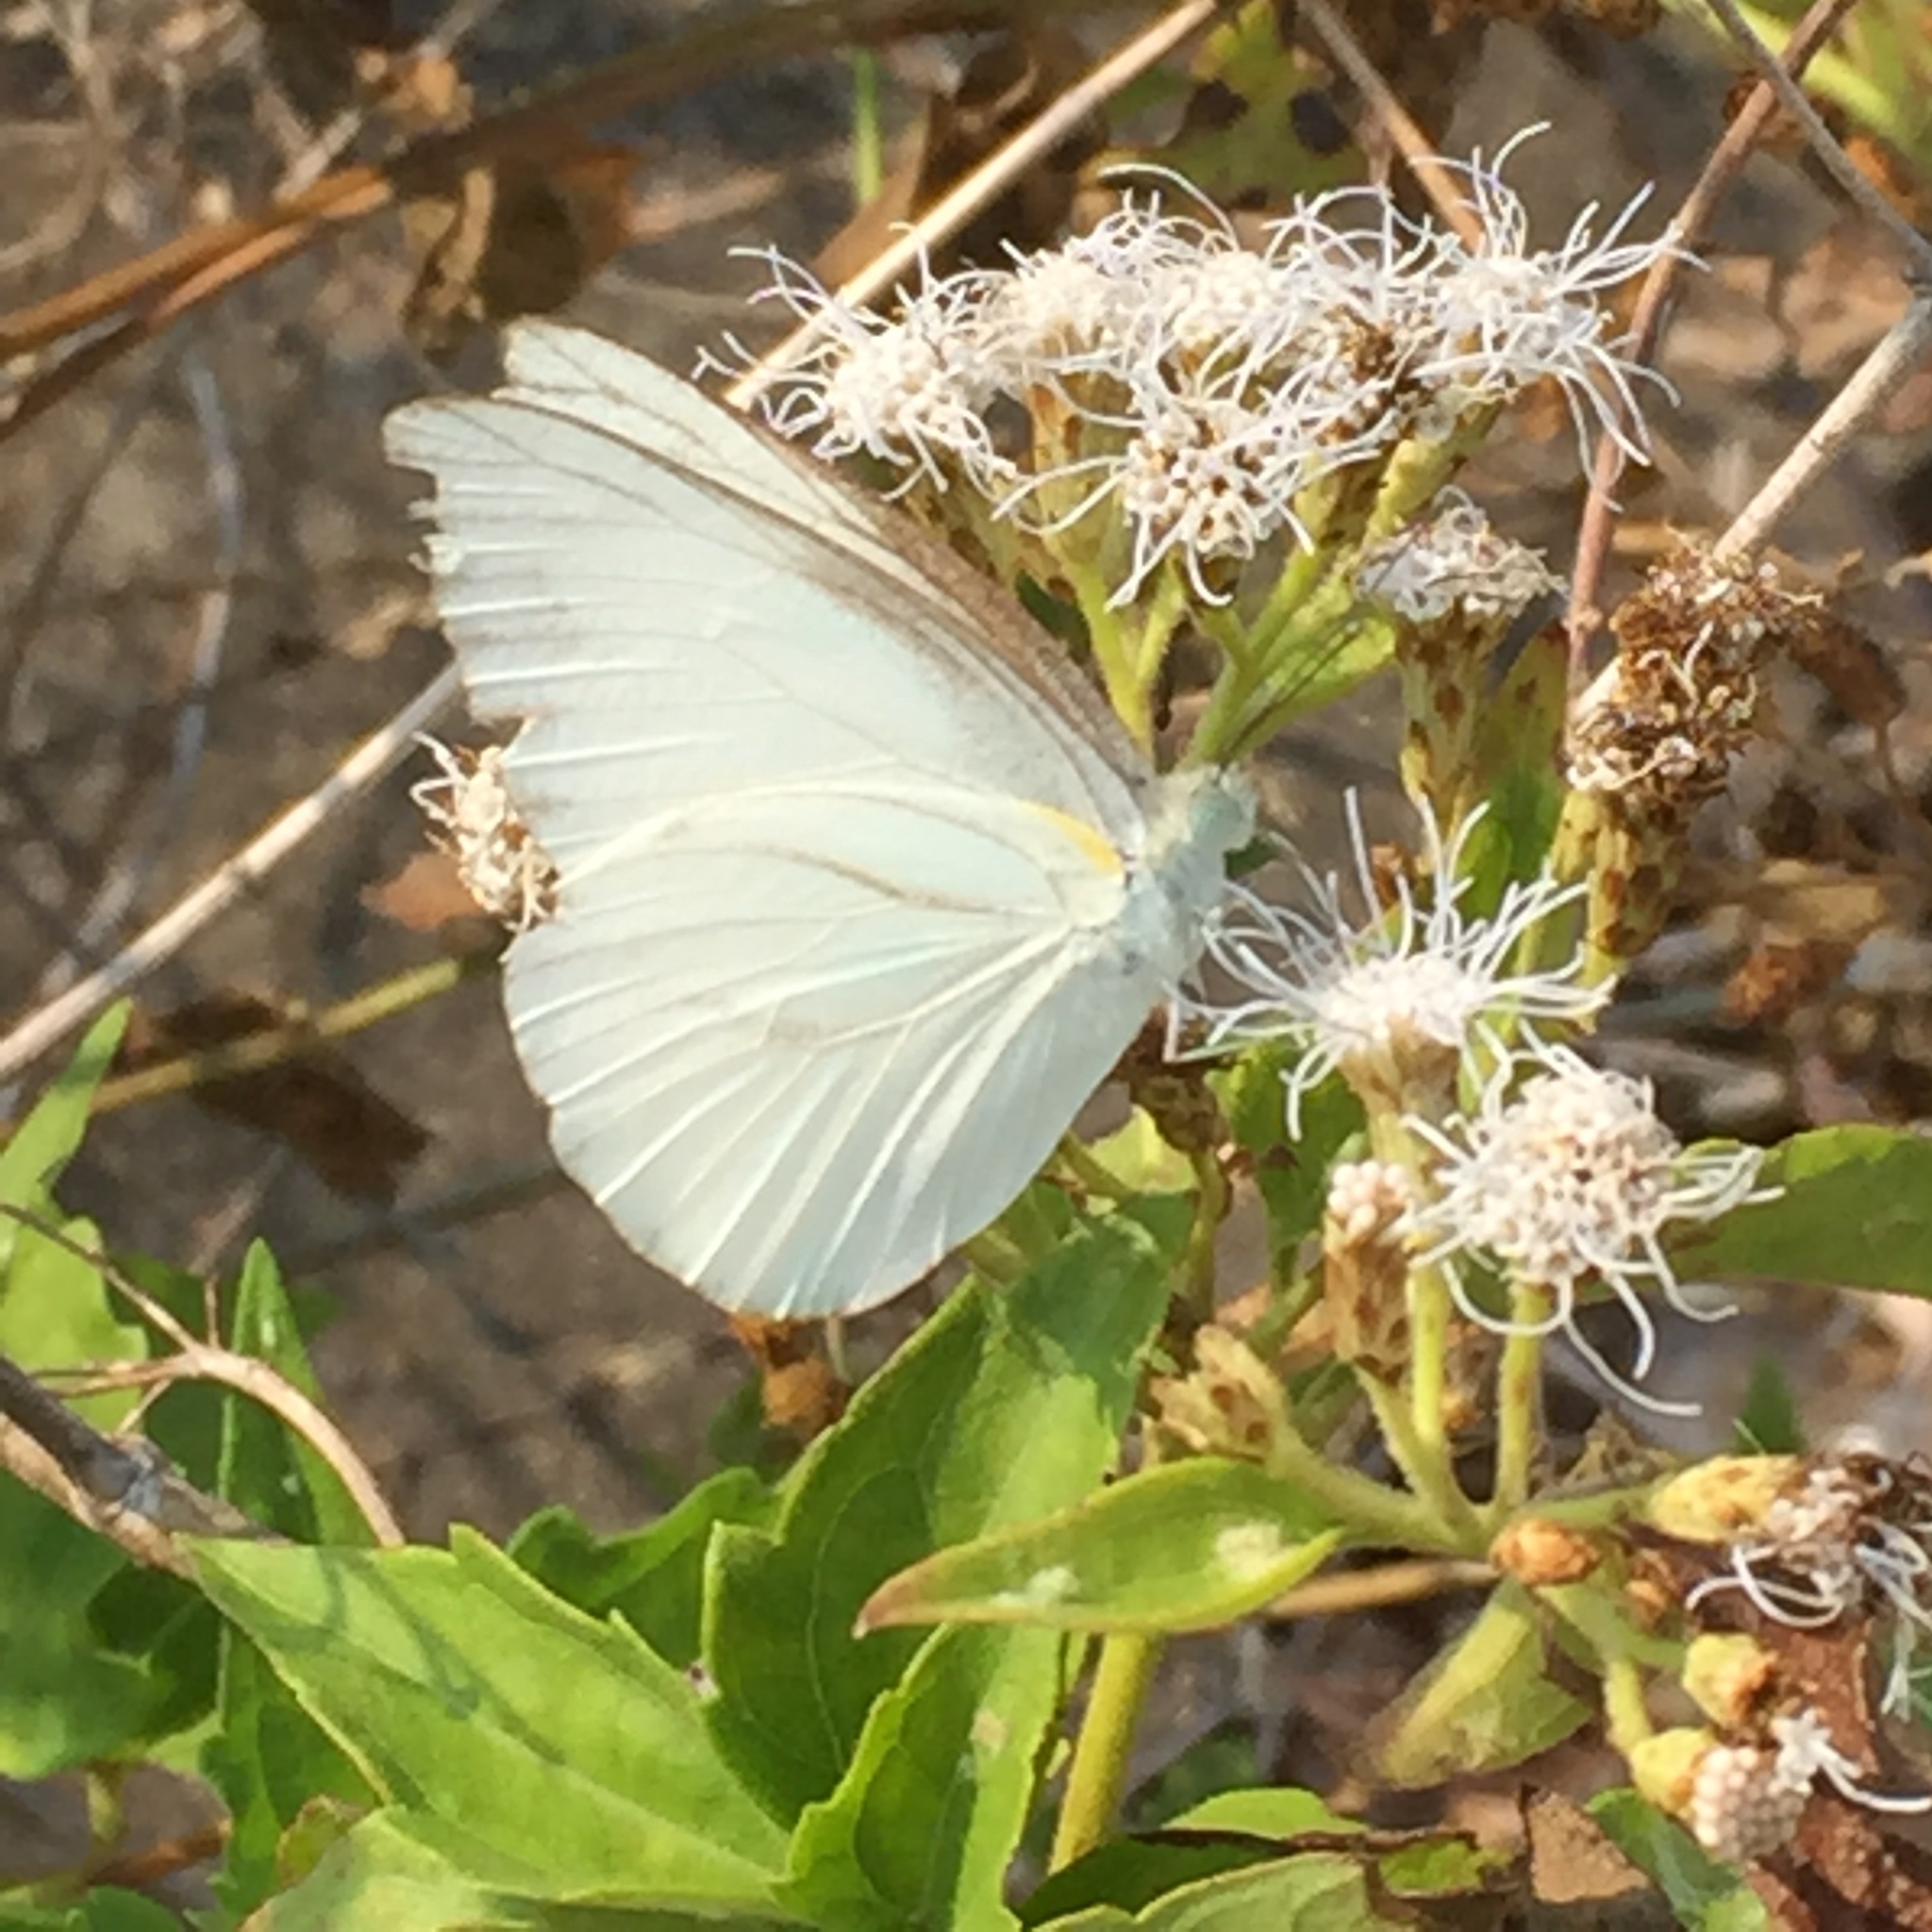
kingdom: Animalia
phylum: Arthropoda
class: Insecta
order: Lepidoptera
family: Pieridae
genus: Appias
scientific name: Appias libythea
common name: Striped albatross
